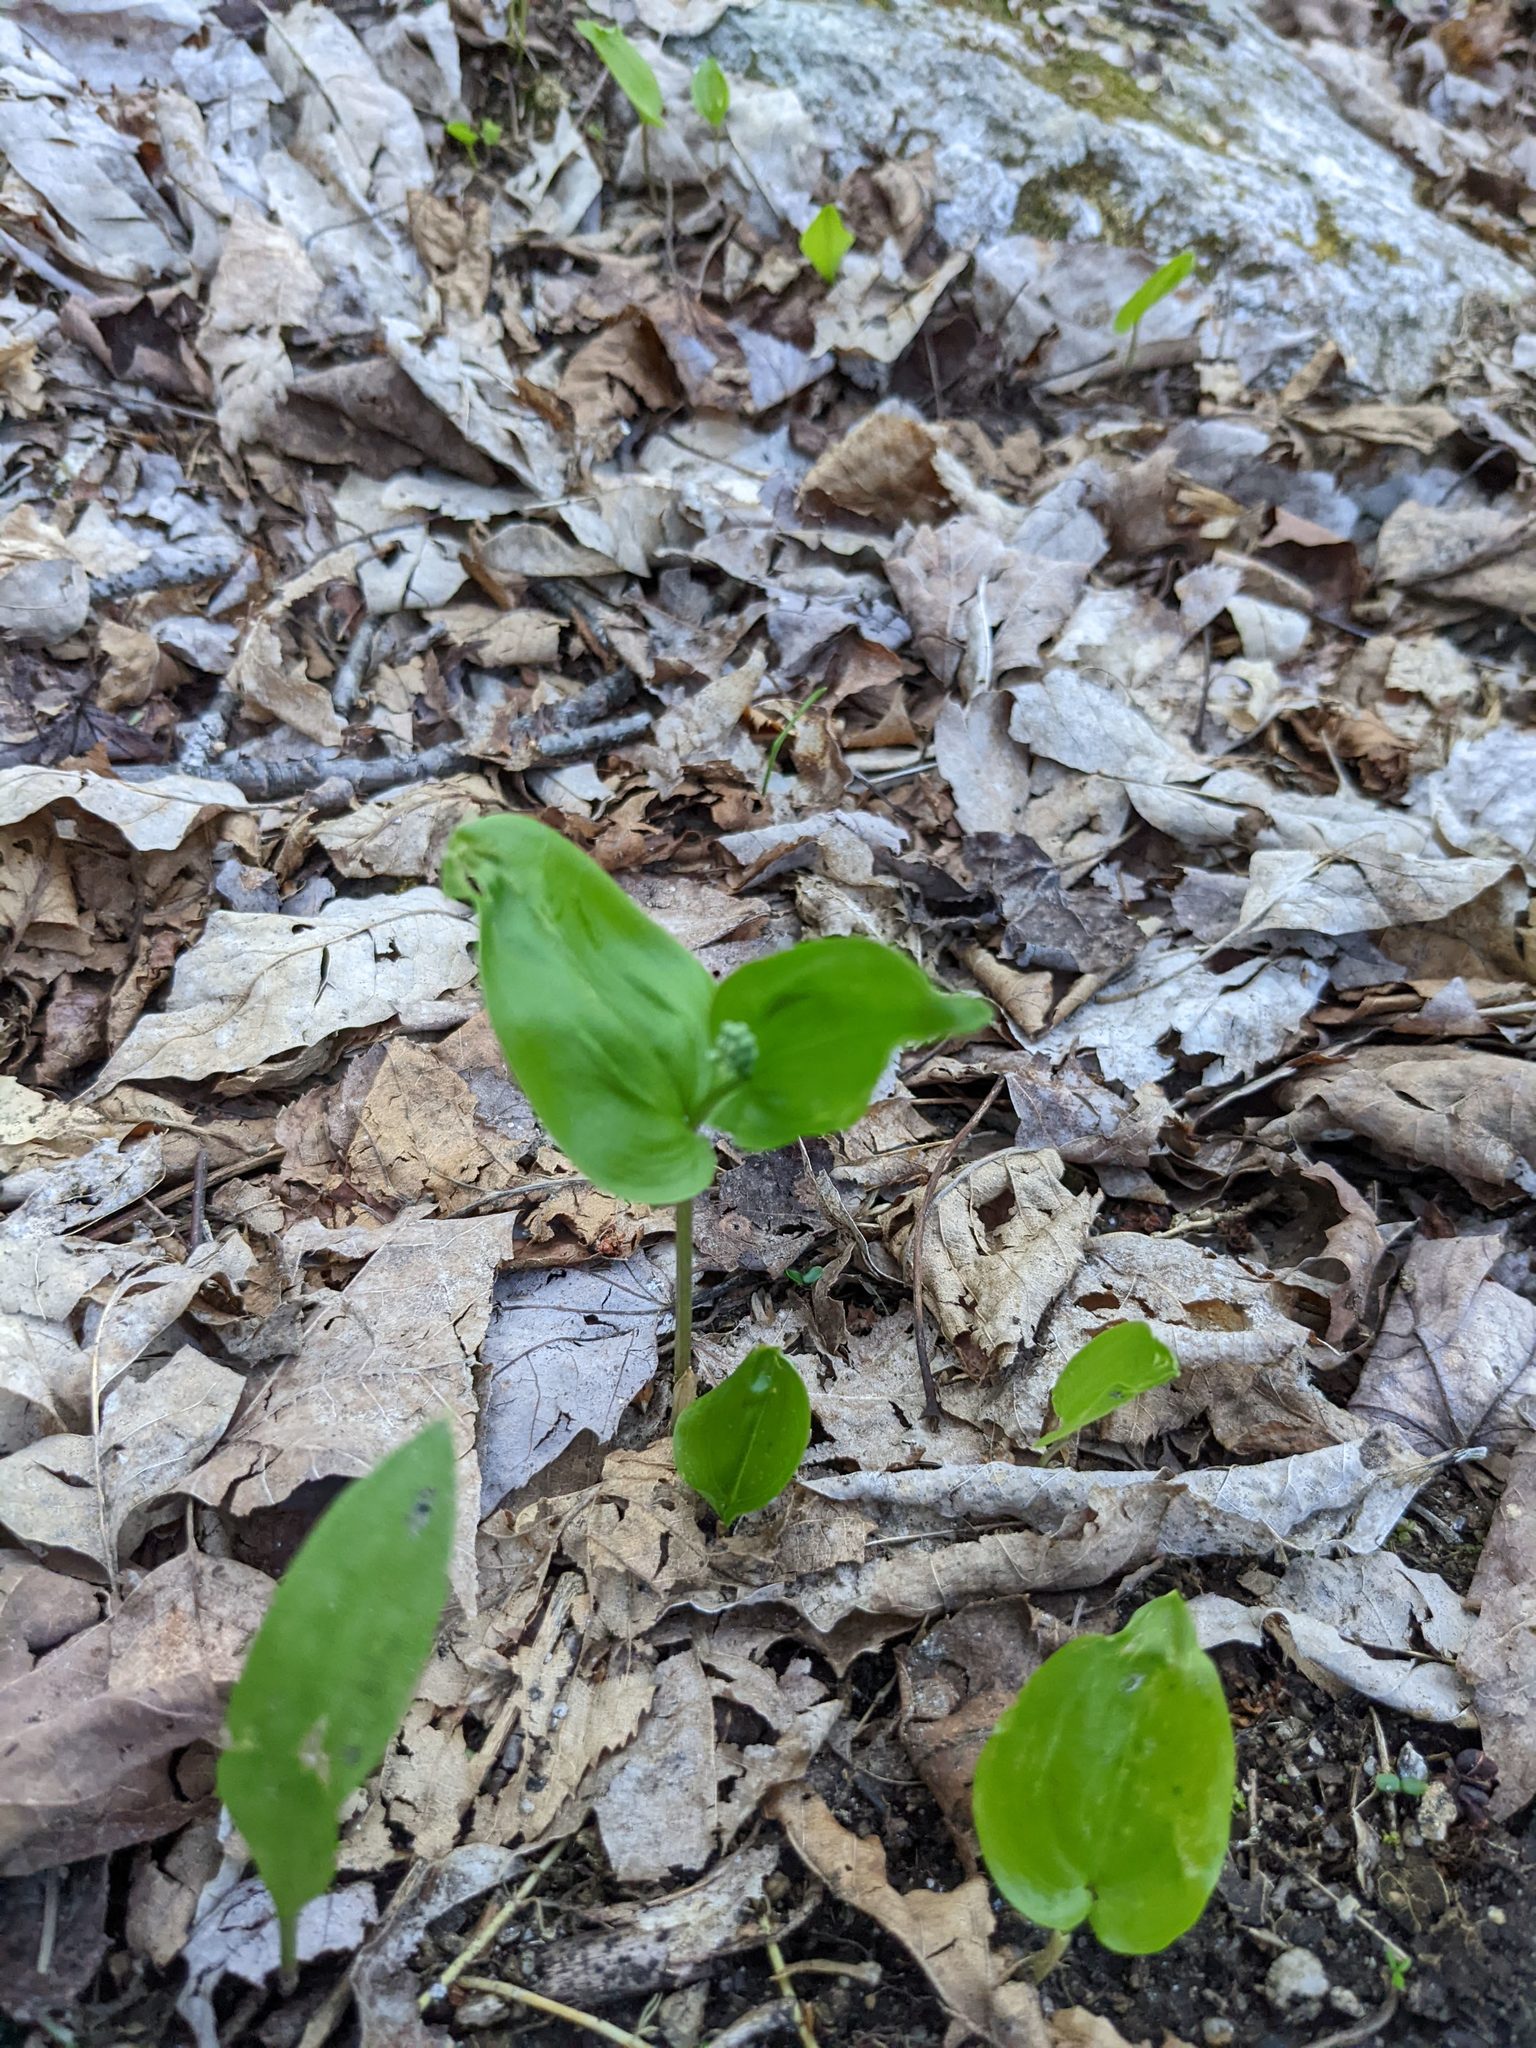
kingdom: Plantae
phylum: Tracheophyta
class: Liliopsida
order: Asparagales
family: Asparagaceae
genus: Maianthemum
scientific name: Maianthemum canadense
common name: False lily-of-the-valley
